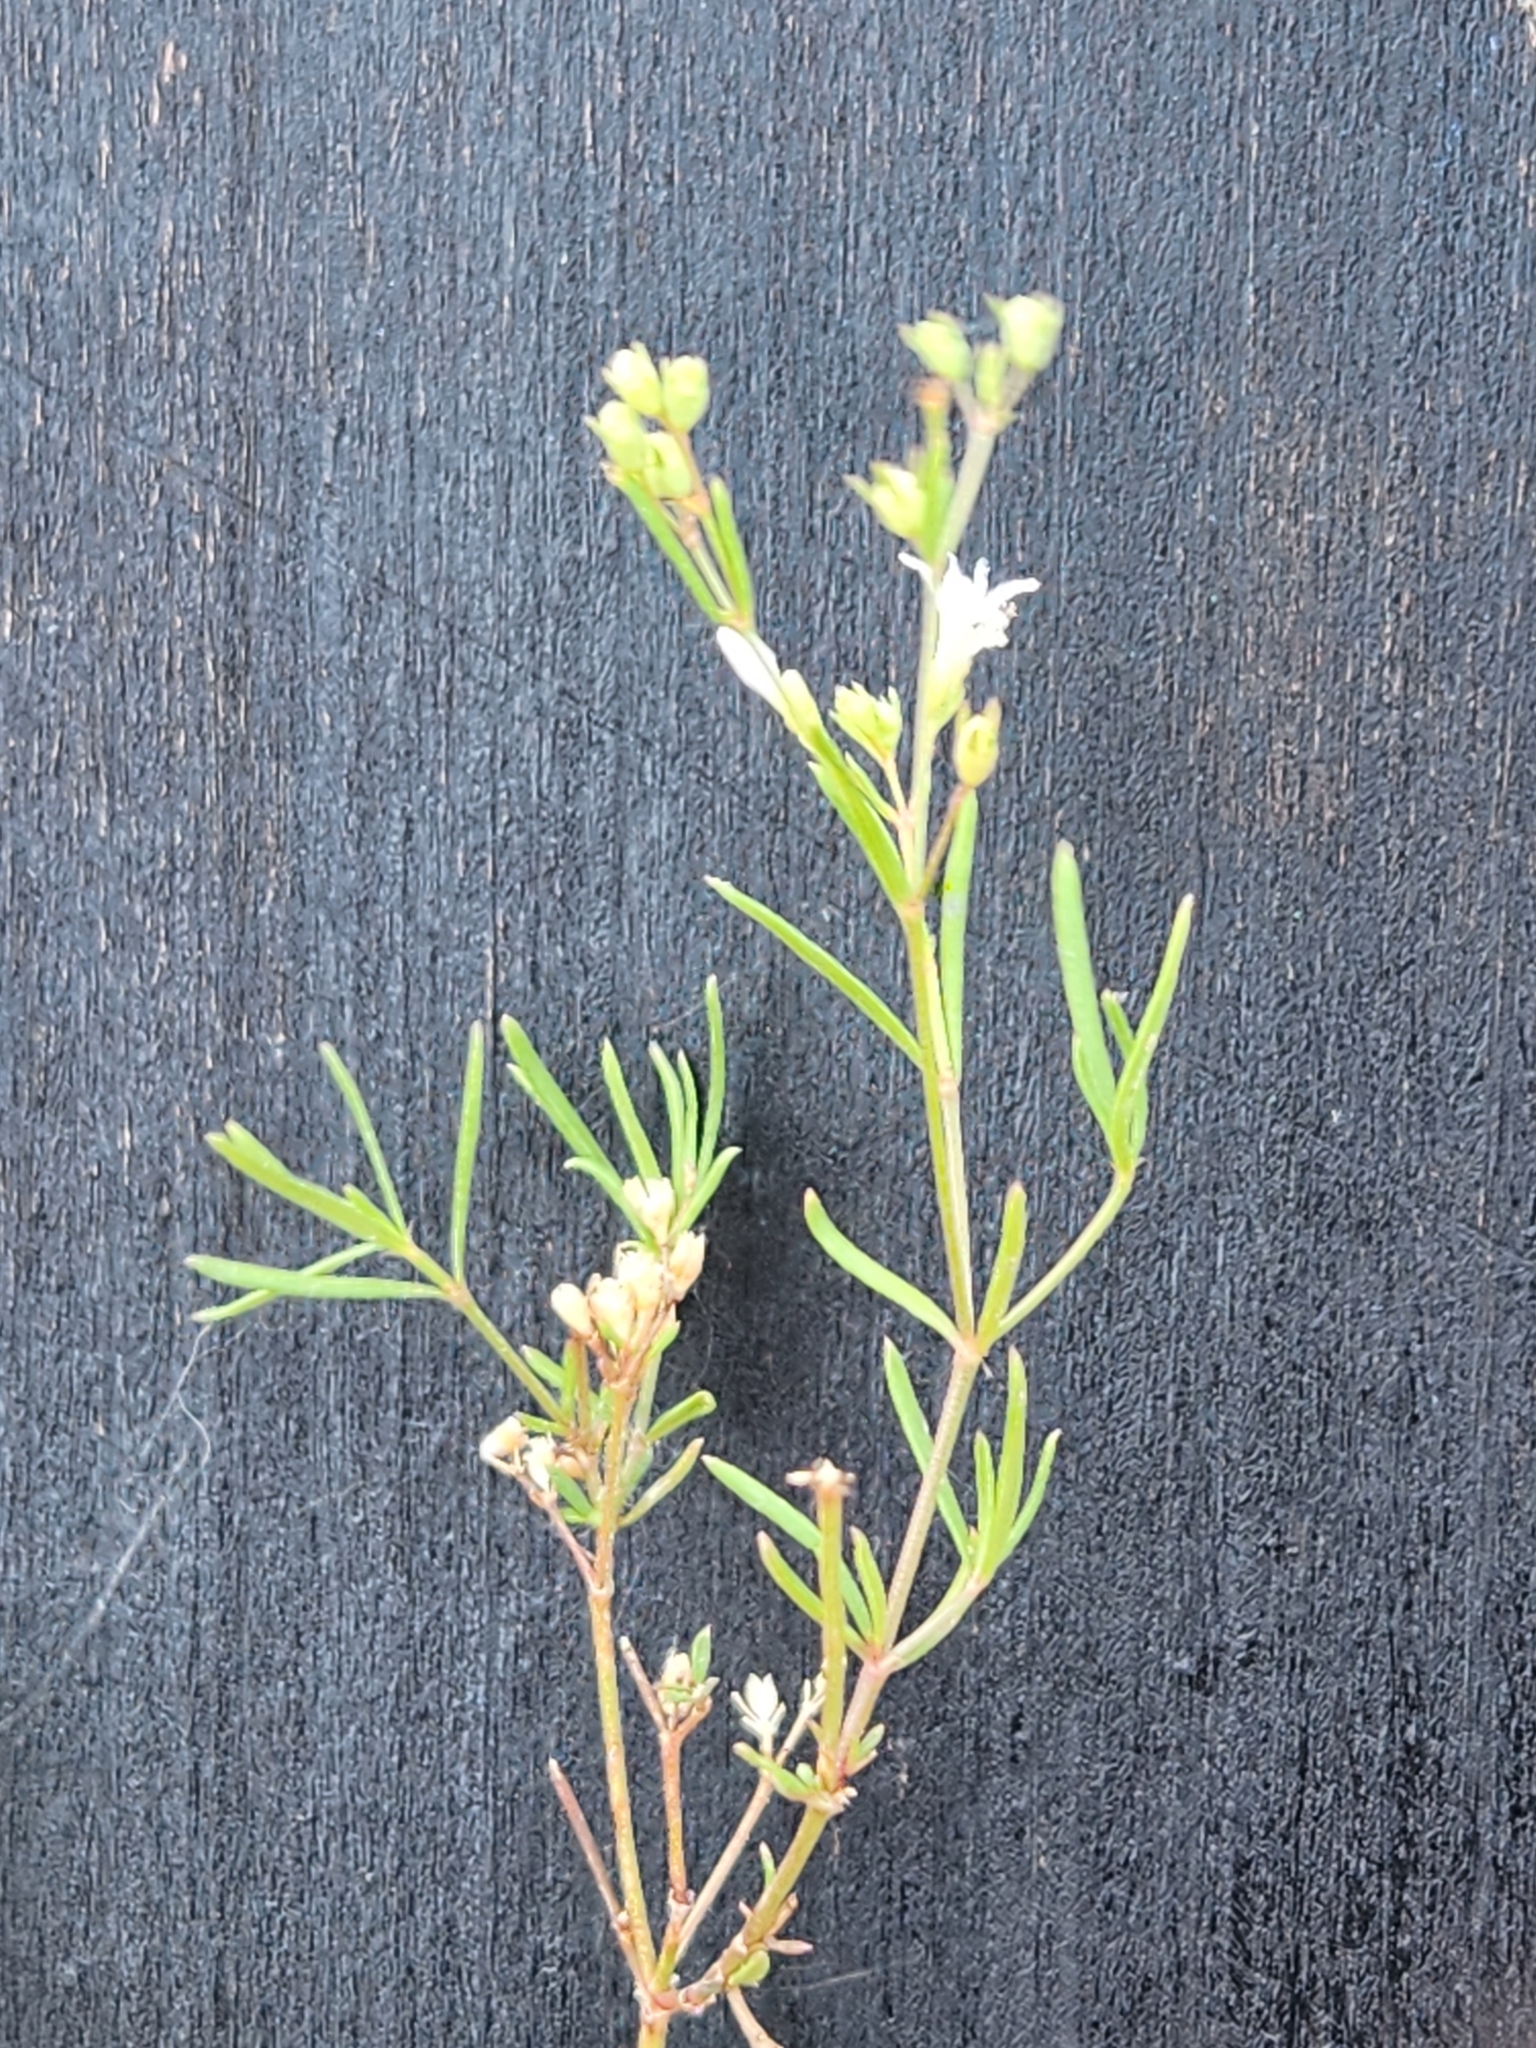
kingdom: Plantae
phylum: Tracheophyta
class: Magnoliopsida
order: Gentianales
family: Rubiaceae
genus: Stenaria
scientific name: Stenaria nigricans
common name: Diamondflowers
